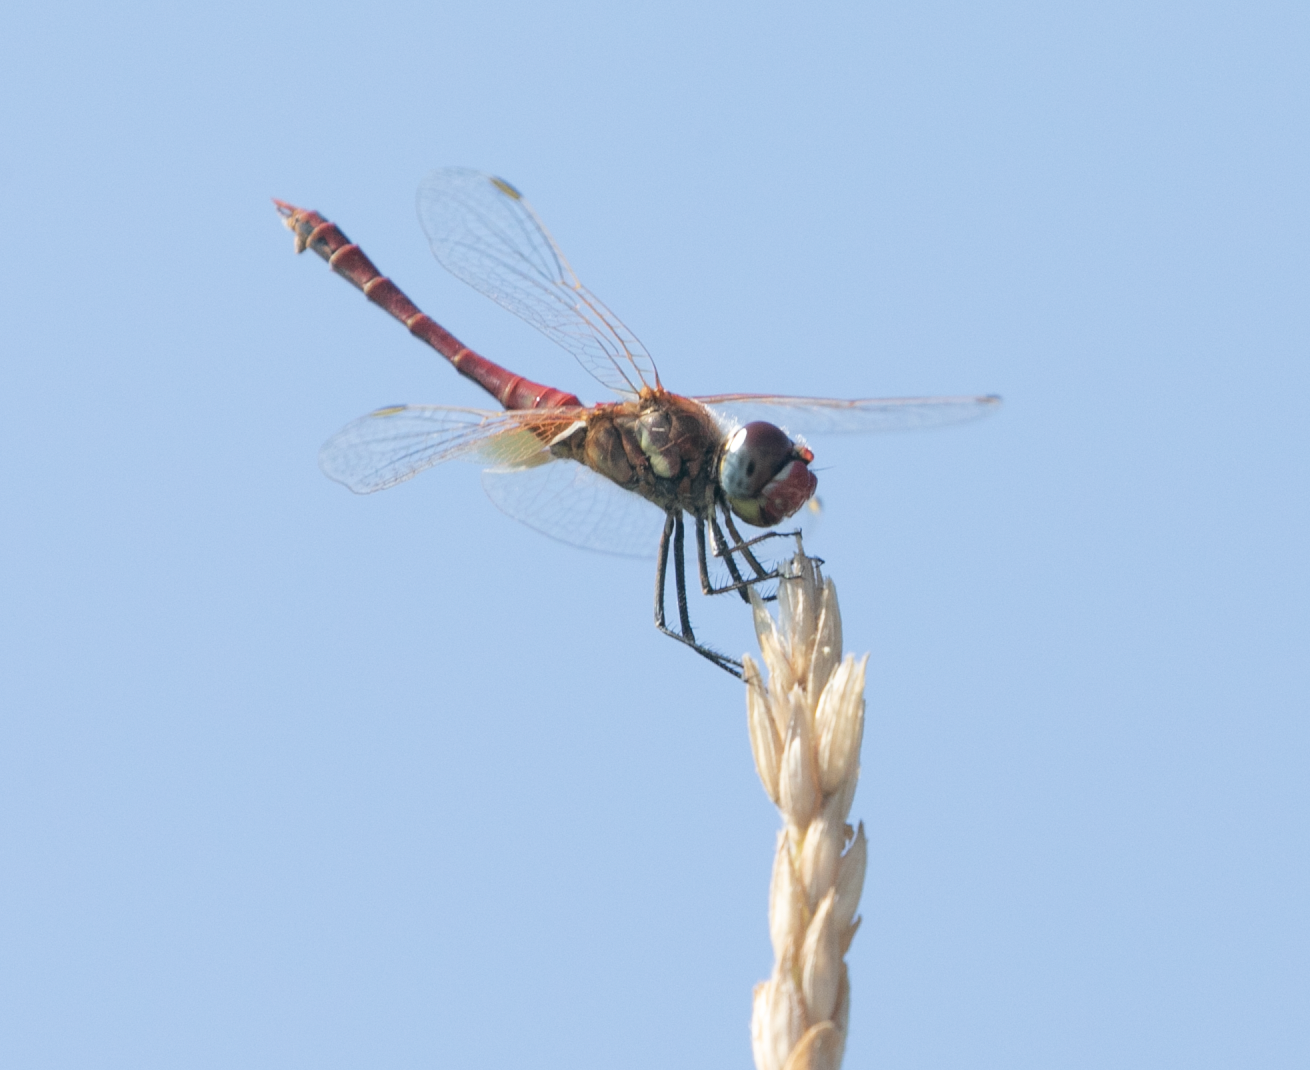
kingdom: Animalia
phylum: Arthropoda
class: Insecta
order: Odonata
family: Libellulidae
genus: Sympetrum
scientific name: Sympetrum fonscolombii
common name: Red-veined darter
